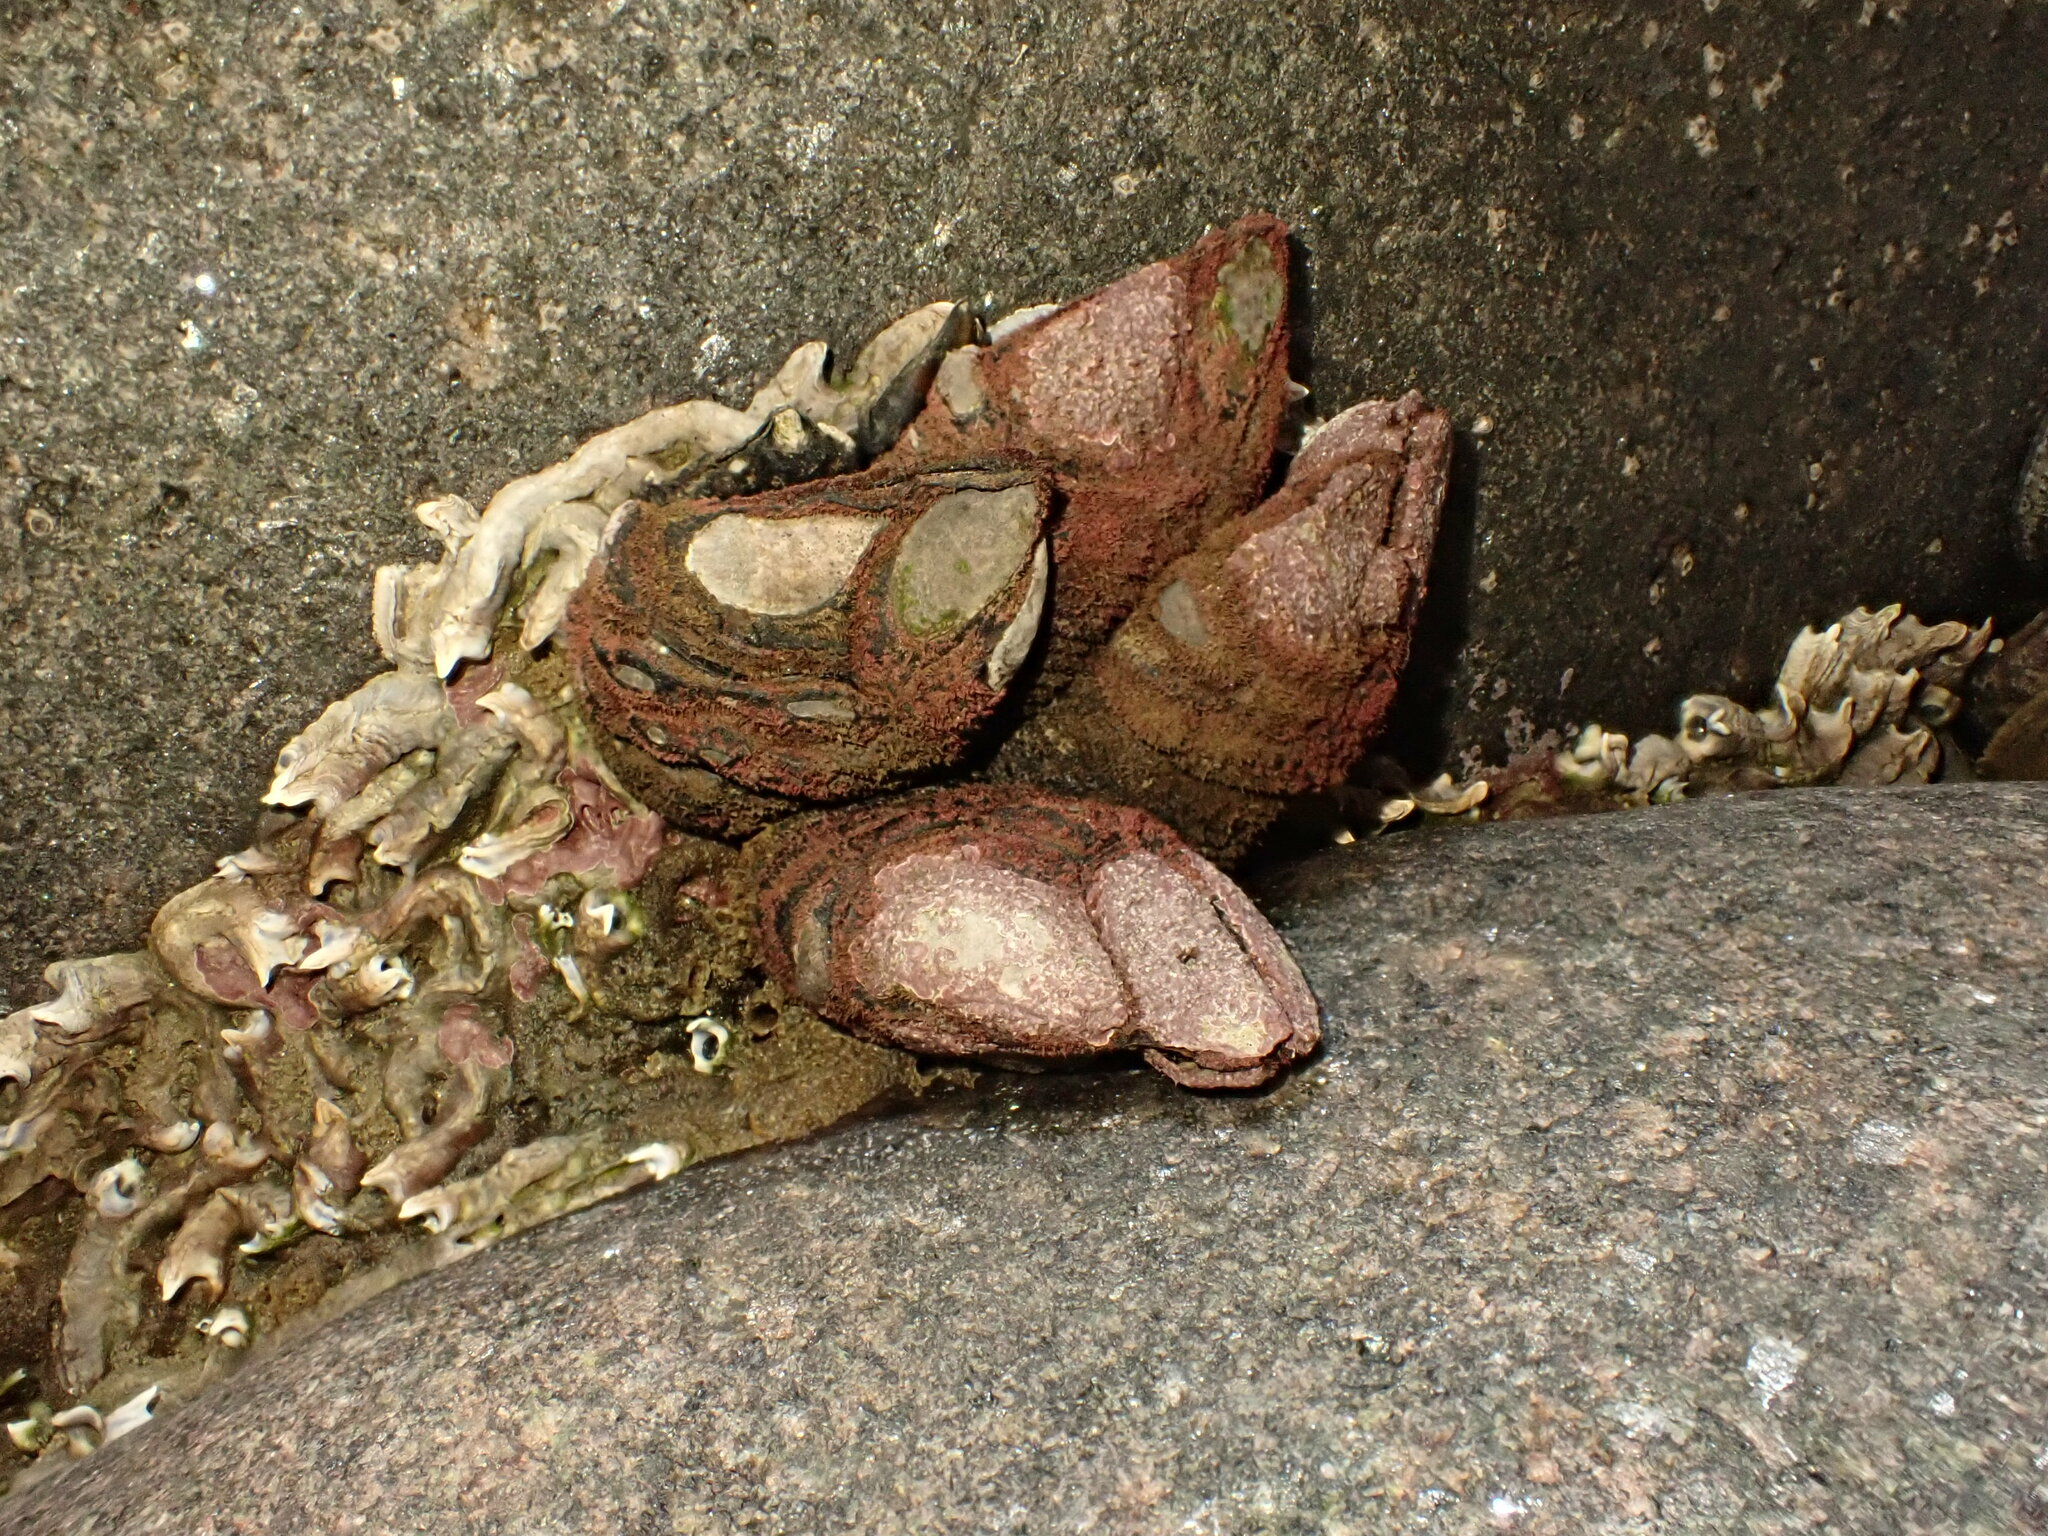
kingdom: Animalia
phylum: Arthropoda
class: Maxillopoda
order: Pedunculata
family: Calanticidae
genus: Calantica
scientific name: Calantica spinosa
